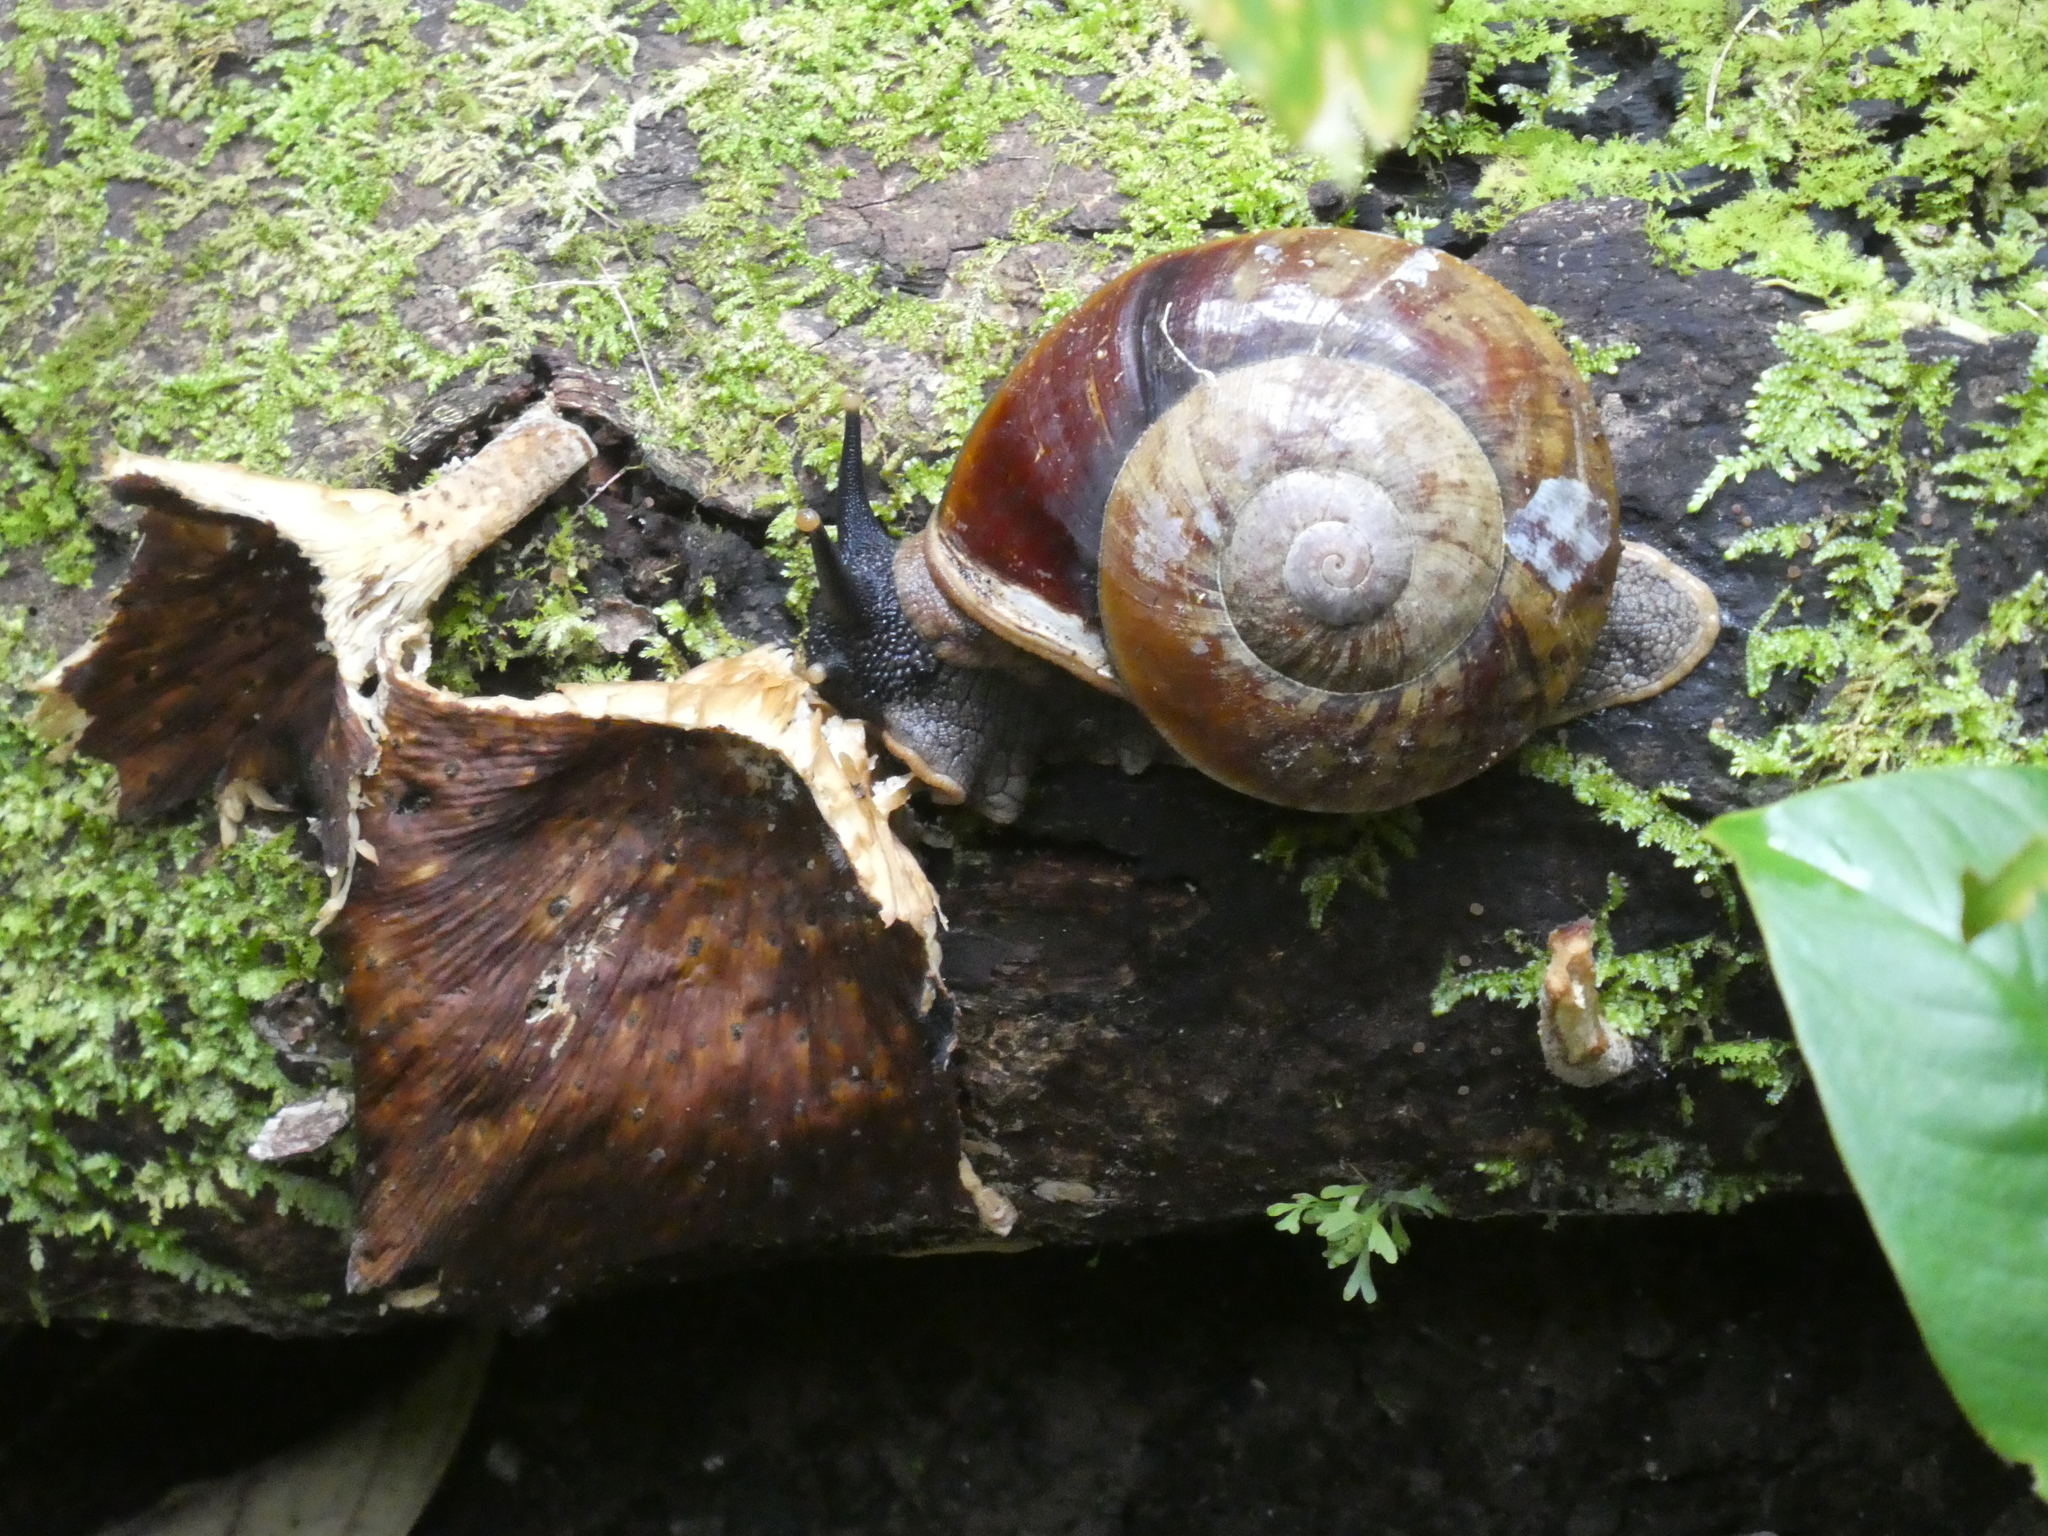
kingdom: Animalia
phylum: Mollusca
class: Gastropoda
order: Stylommatophora
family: Chronidae
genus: Exrhysota
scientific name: Exrhysota brookei
